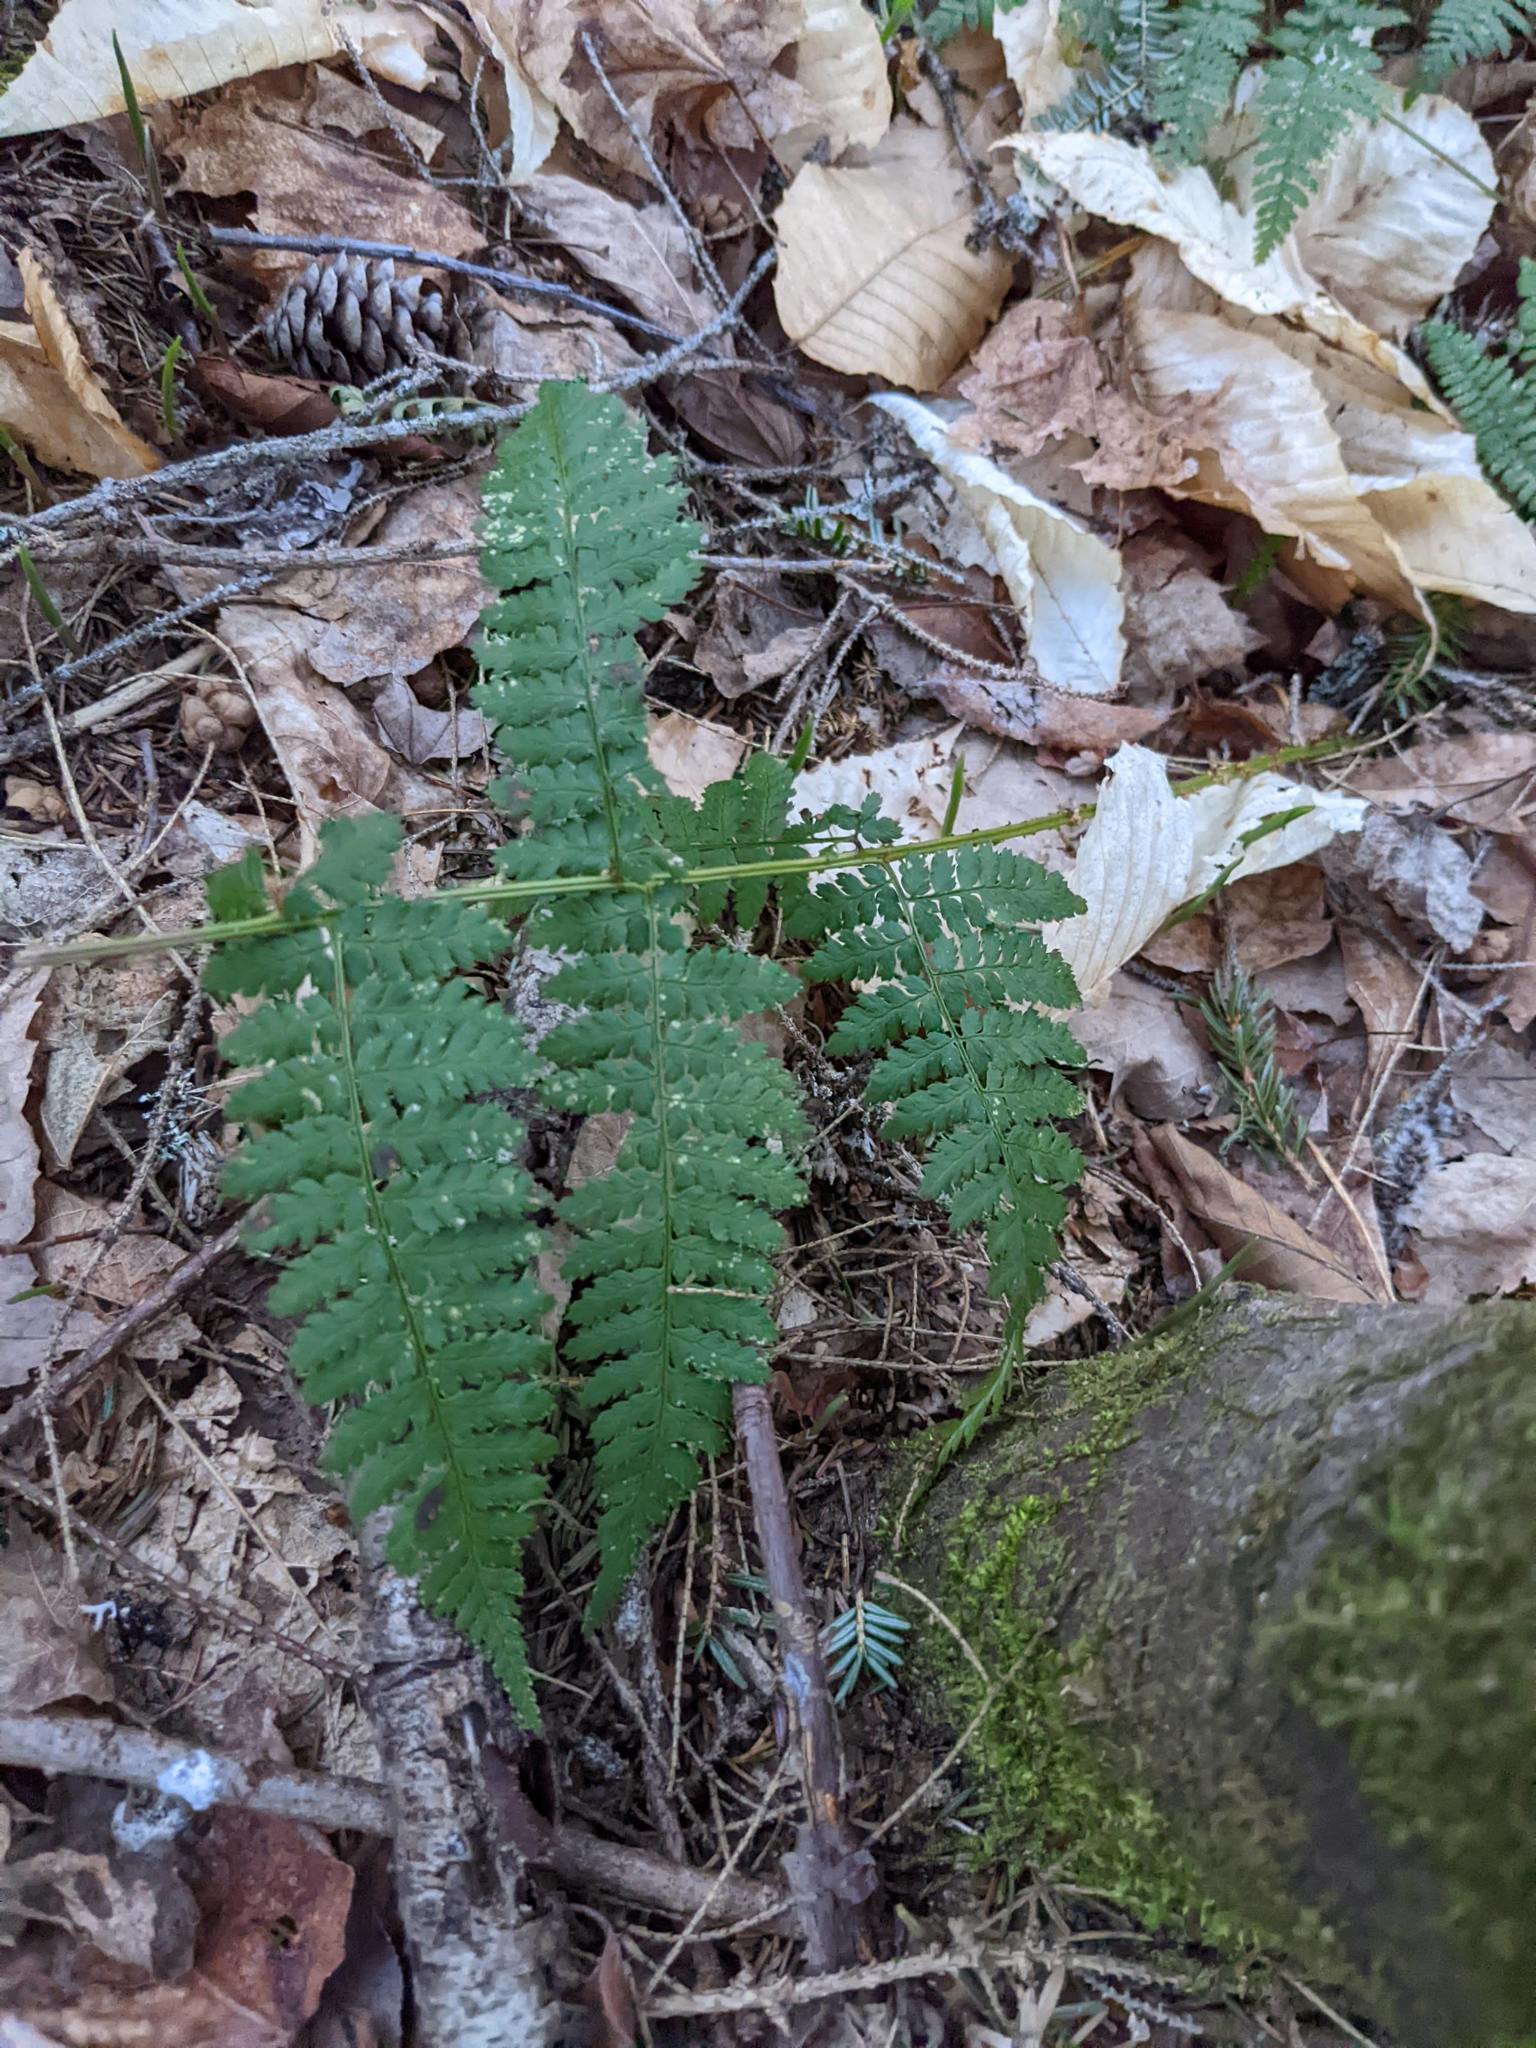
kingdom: Plantae
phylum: Tracheophyta
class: Polypodiopsida
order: Polypodiales
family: Dryopteridaceae
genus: Dryopteris
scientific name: Dryopteris intermedia
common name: Evergreen wood fern
